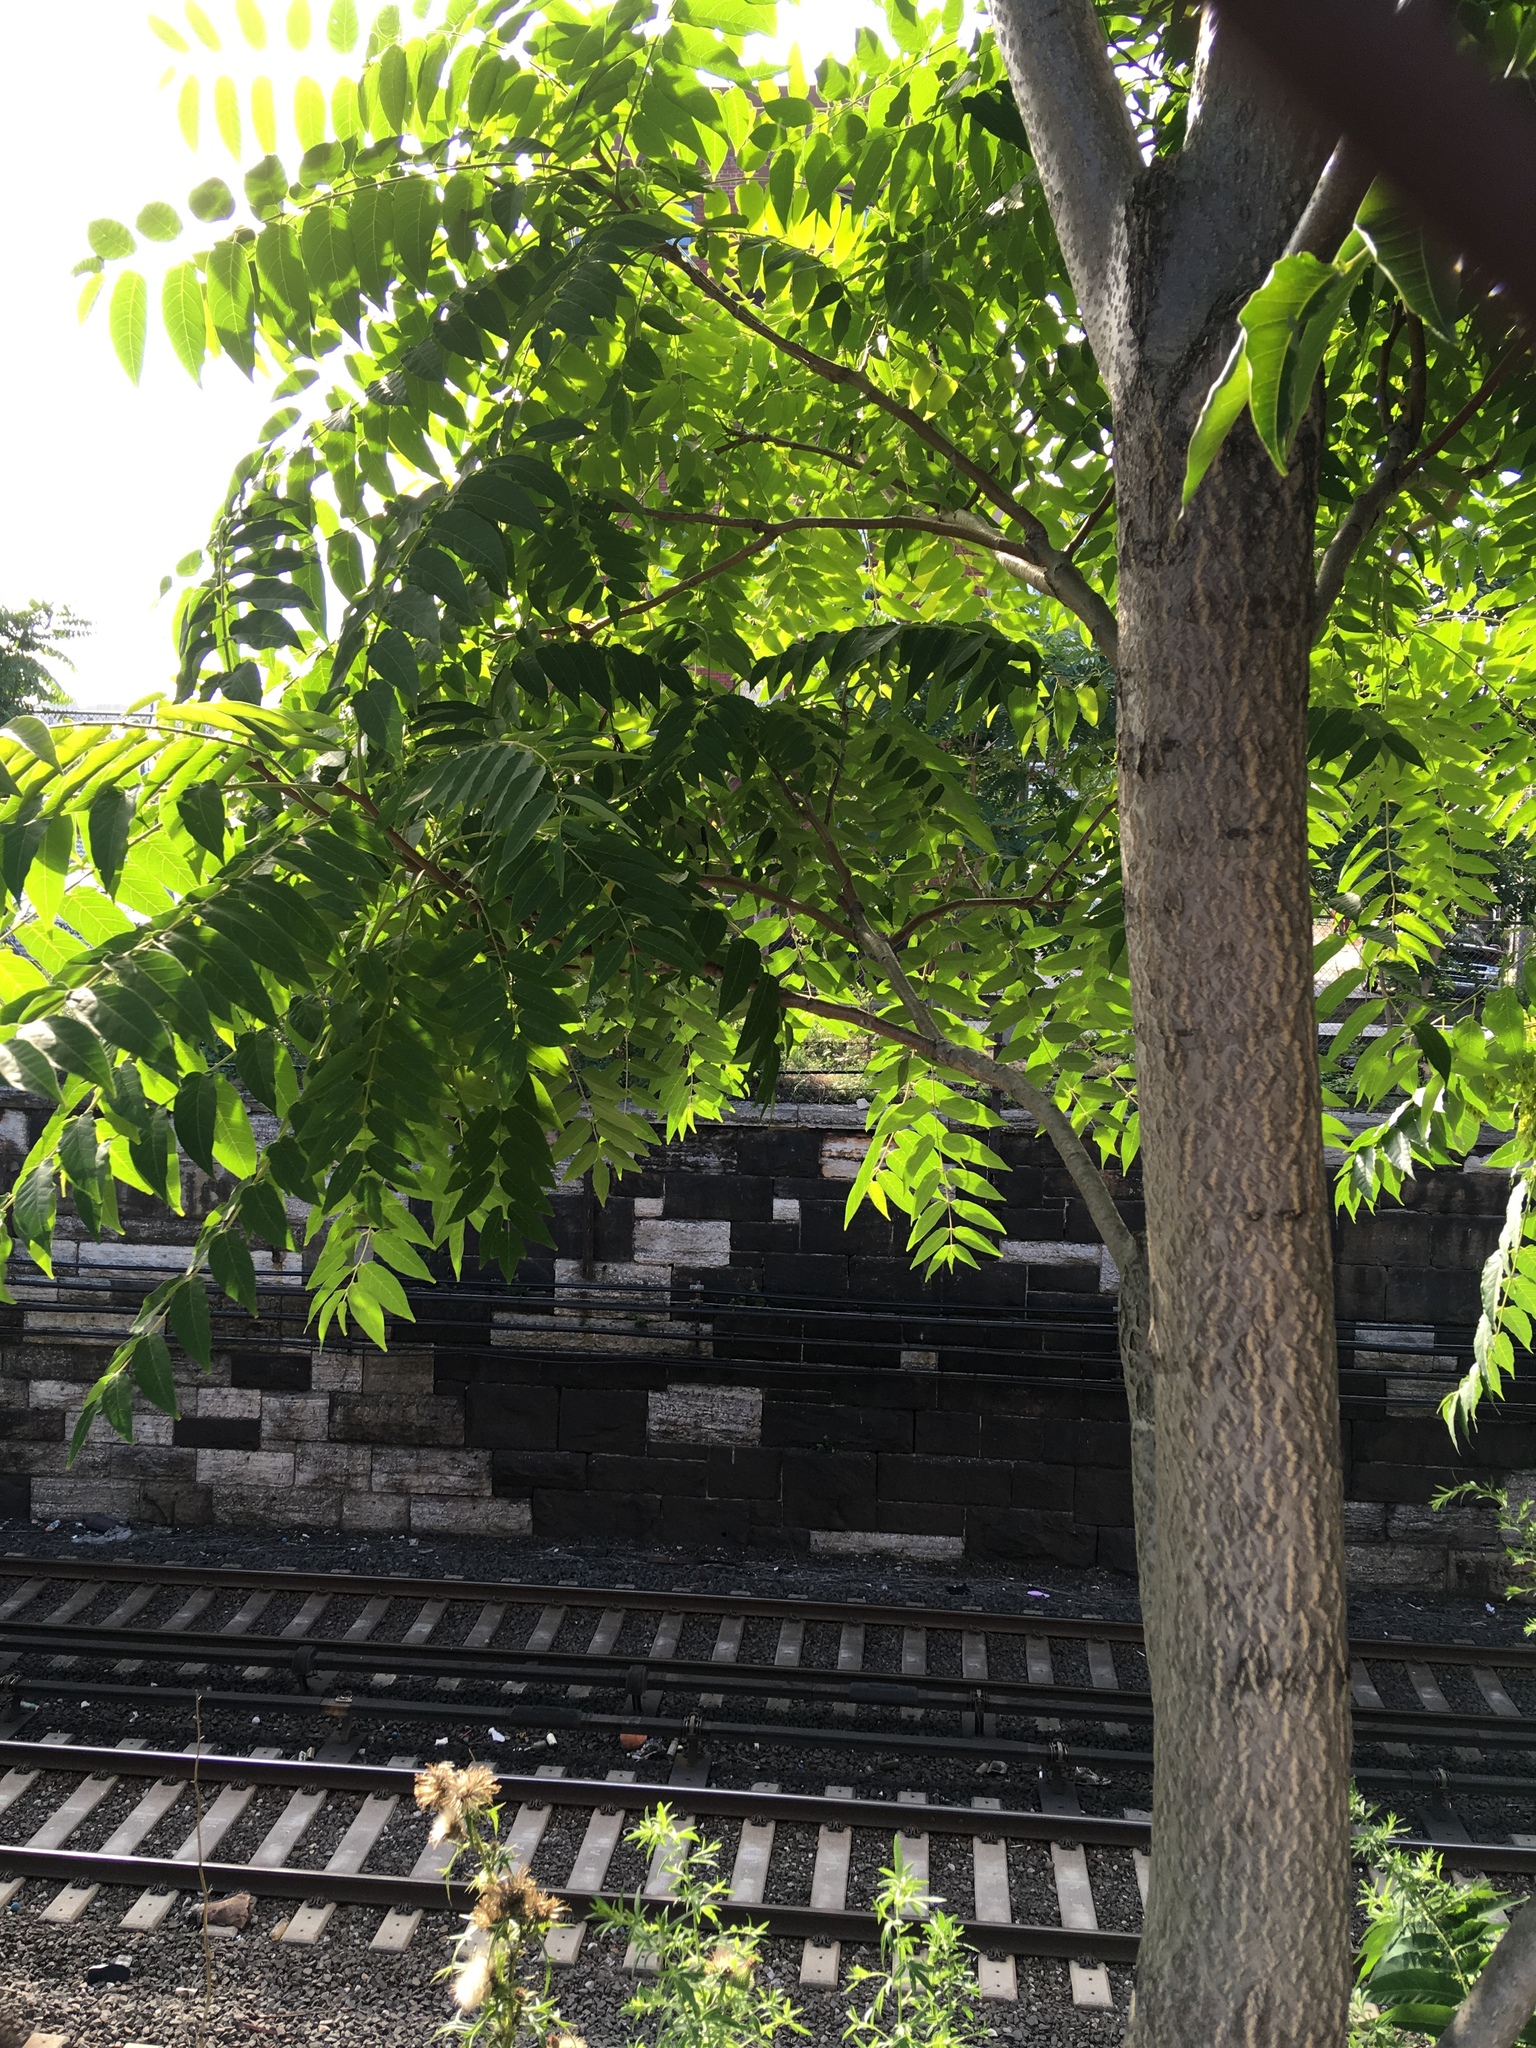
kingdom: Plantae
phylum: Tracheophyta
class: Magnoliopsida
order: Sapindales
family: Simaroubaceae
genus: Ailanthus
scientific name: Ailanthus altissima
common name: Tree-of-heaven
